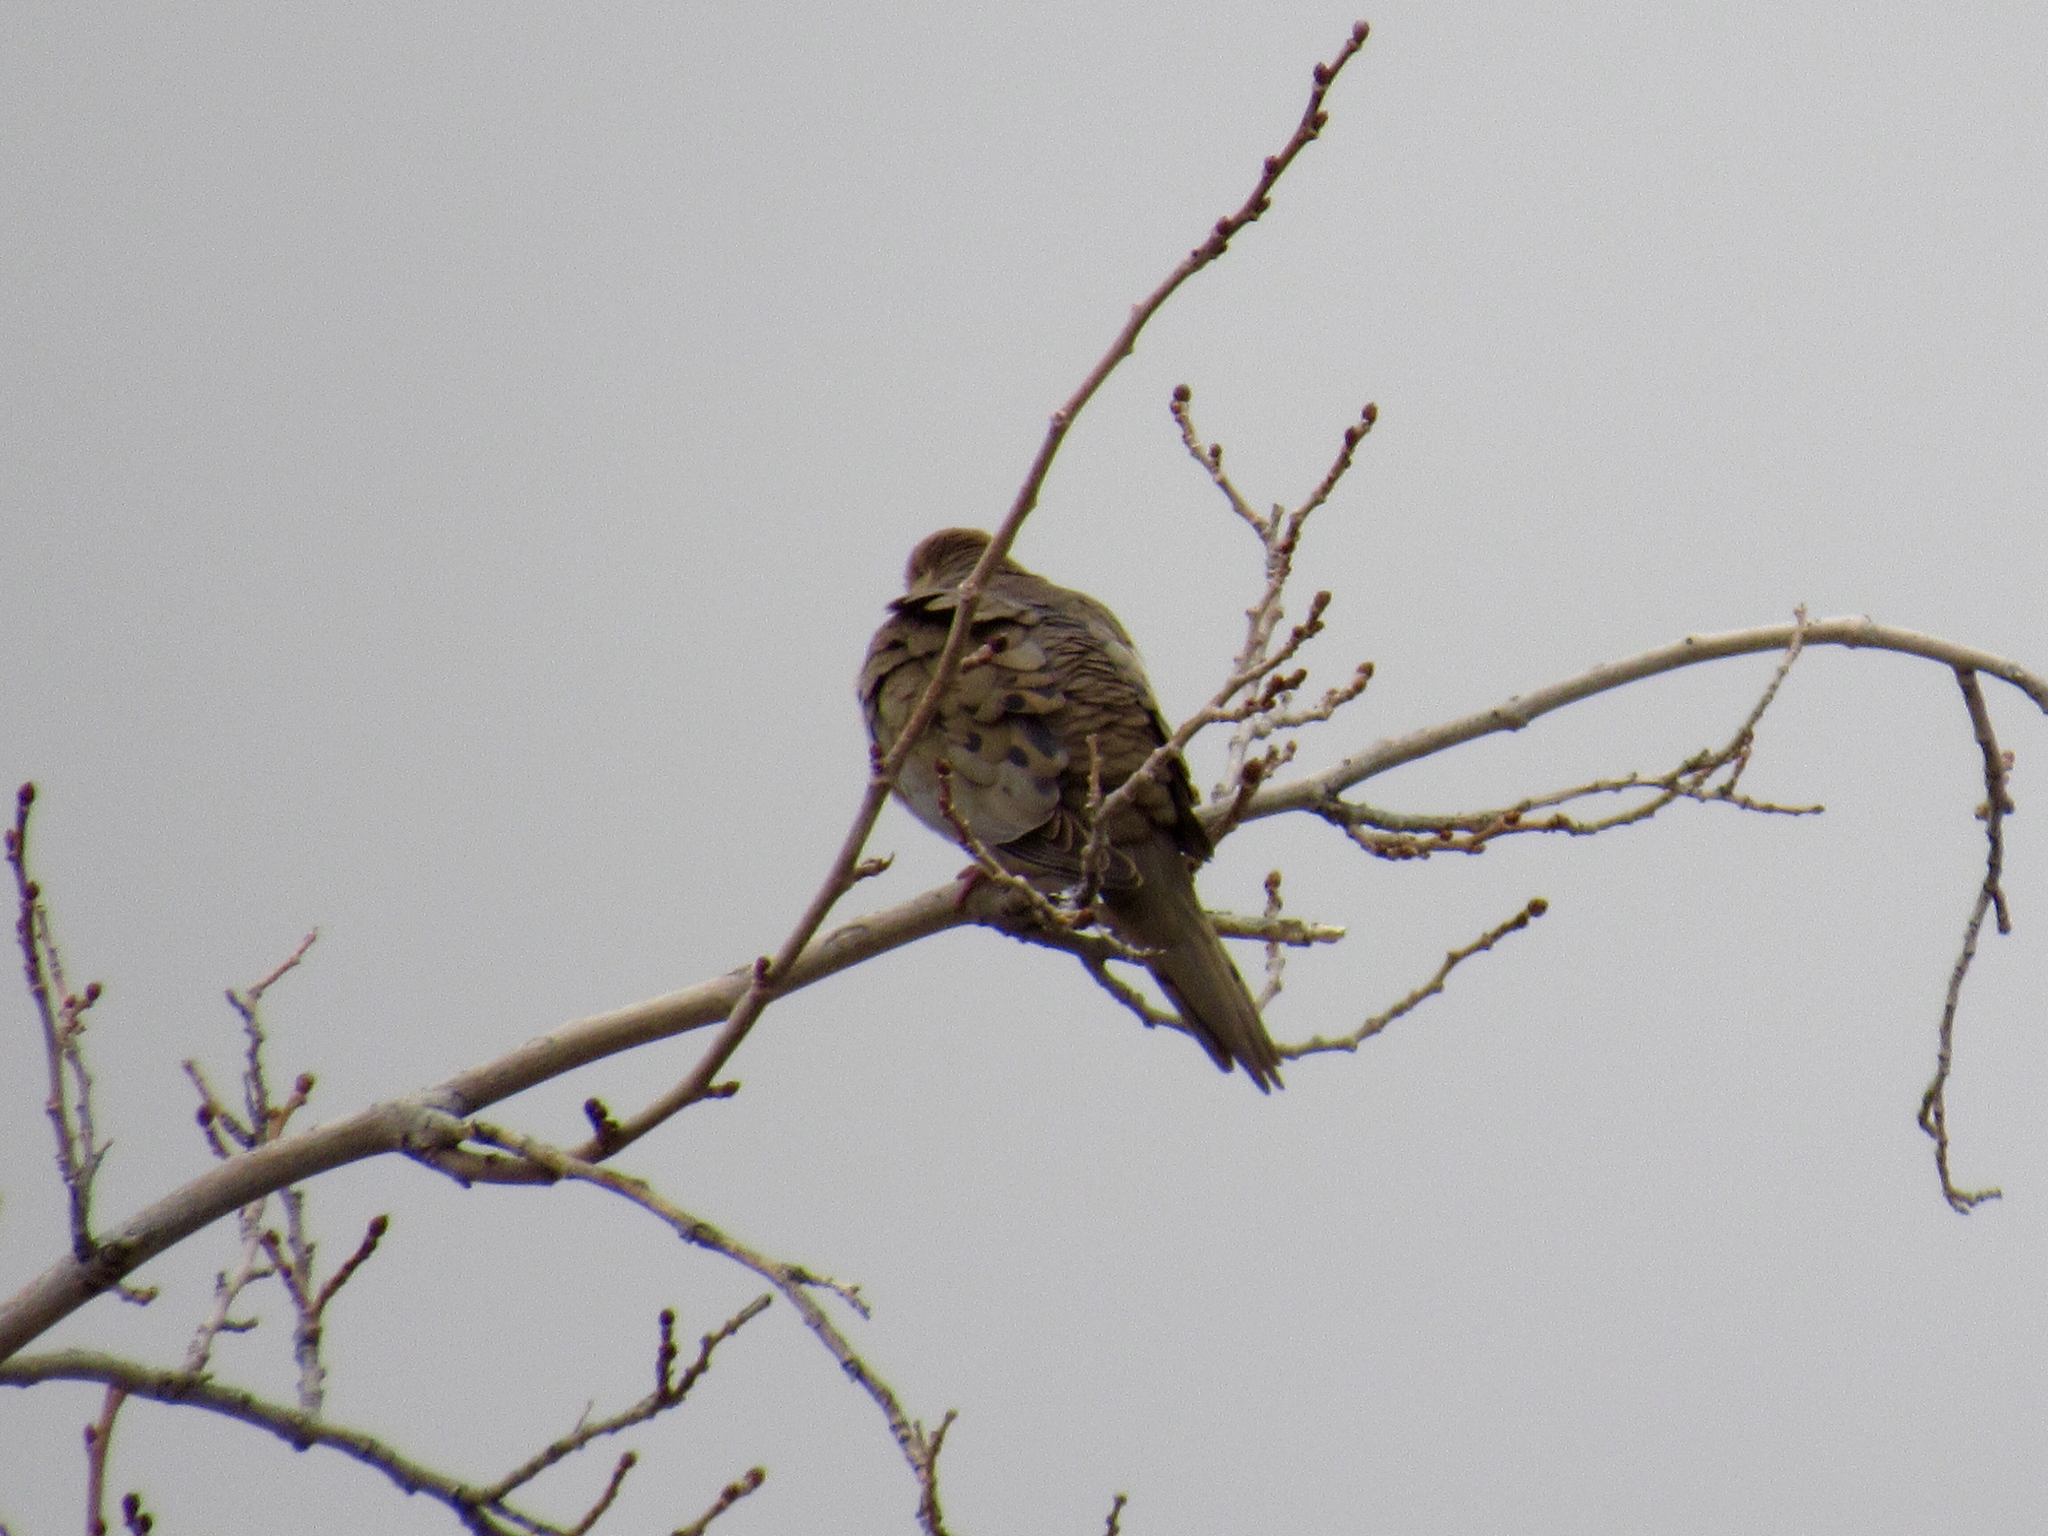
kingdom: Animalia
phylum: Chordata
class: Aves
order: Columbiformes
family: Columbidae
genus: Zenaida
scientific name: Zenaida macroura
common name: Mourning dove
